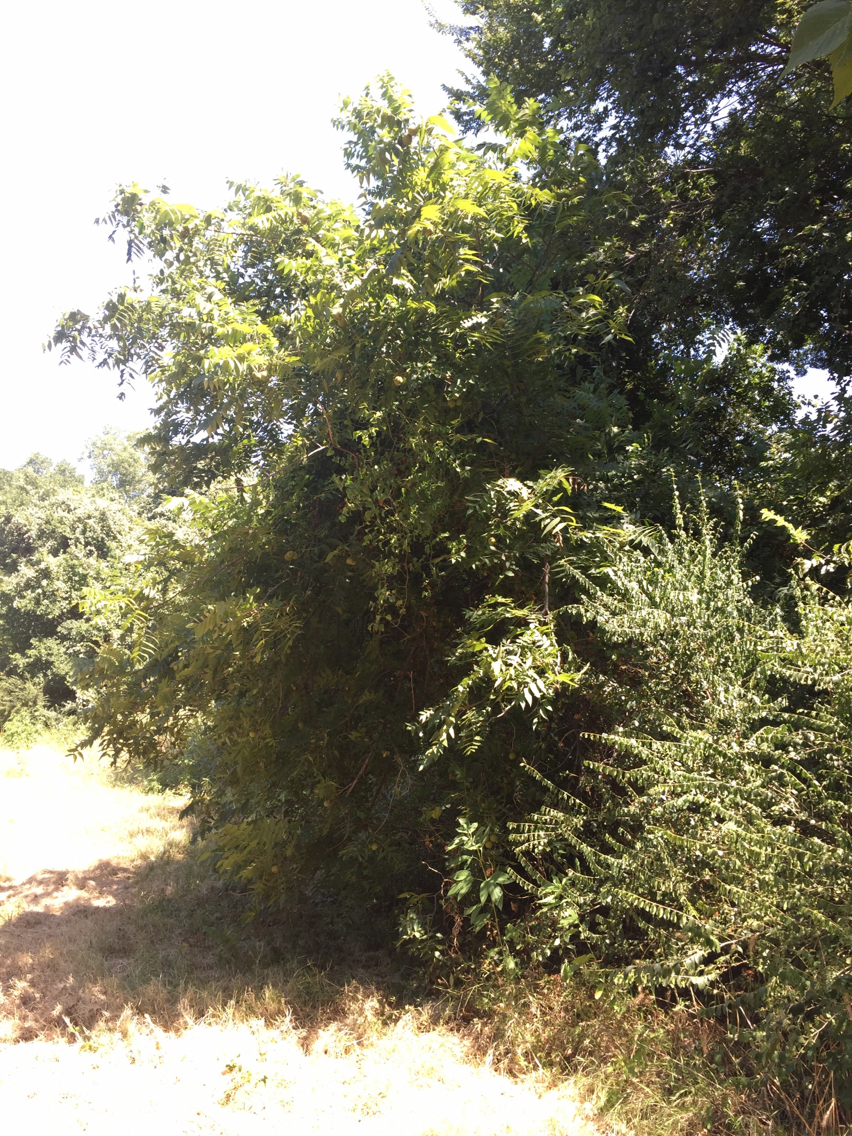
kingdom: Plantae
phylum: Tracheophyta
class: Magnoliopsida
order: Fagales
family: Juglandaceae
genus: Juglans
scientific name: Juglans nigra
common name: Black walnut
